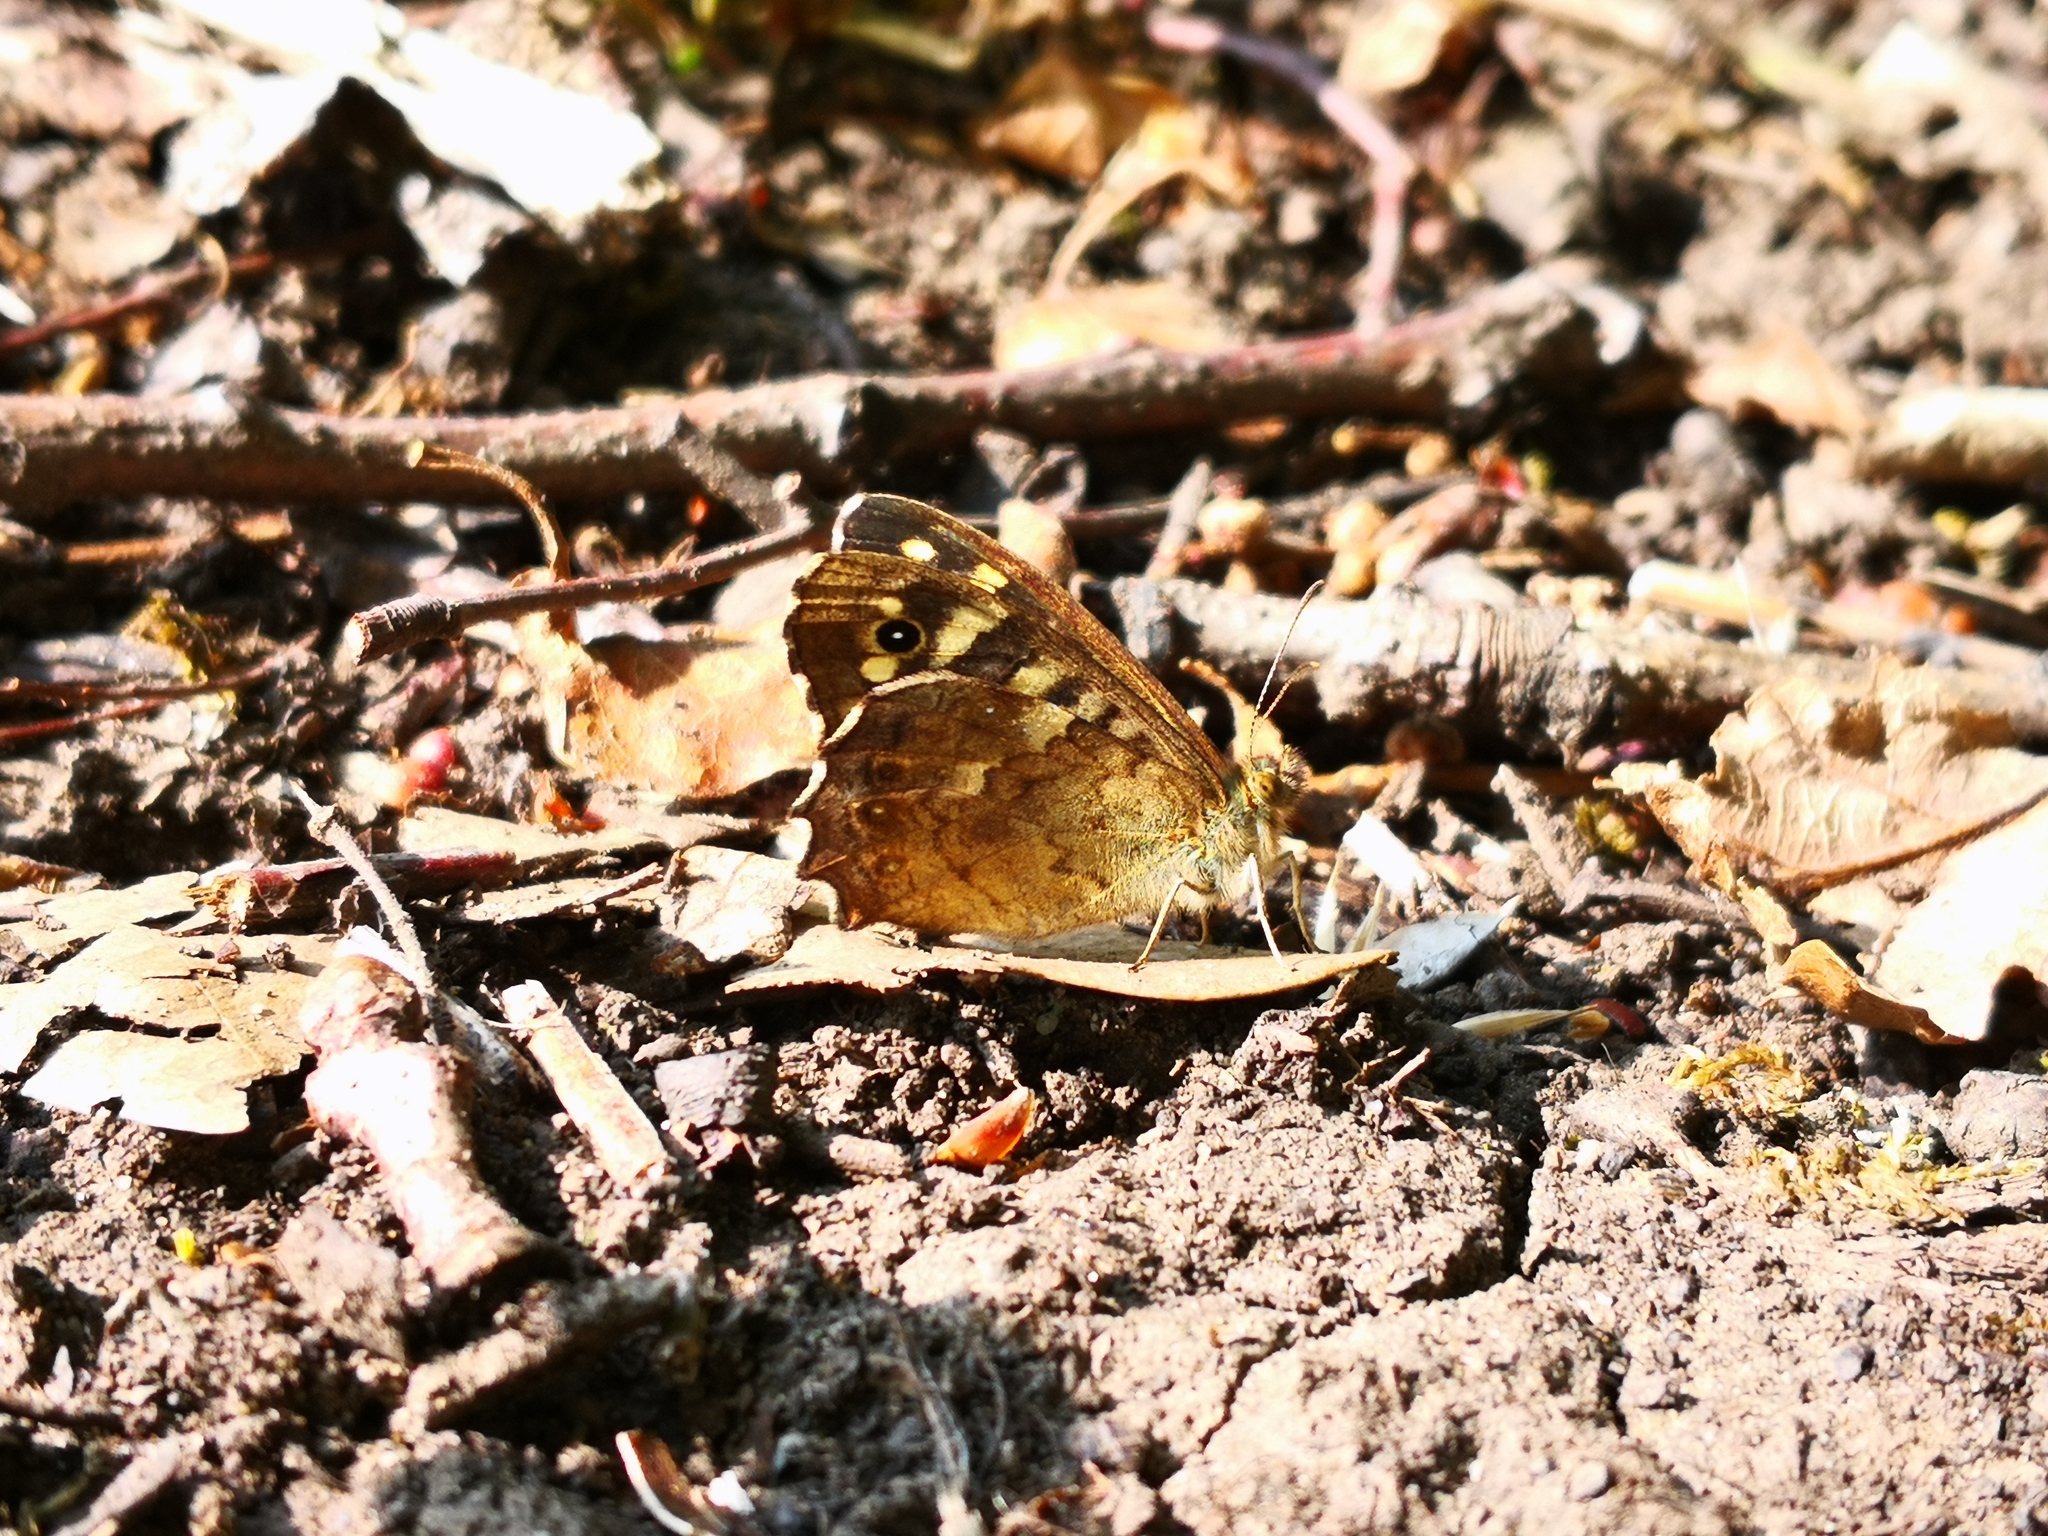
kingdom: Animalia
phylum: Arthropoda
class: Insecta
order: Lepidoptera
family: Nymphalidae
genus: Pararge
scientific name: Pararge aegeria
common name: Speckled wood
